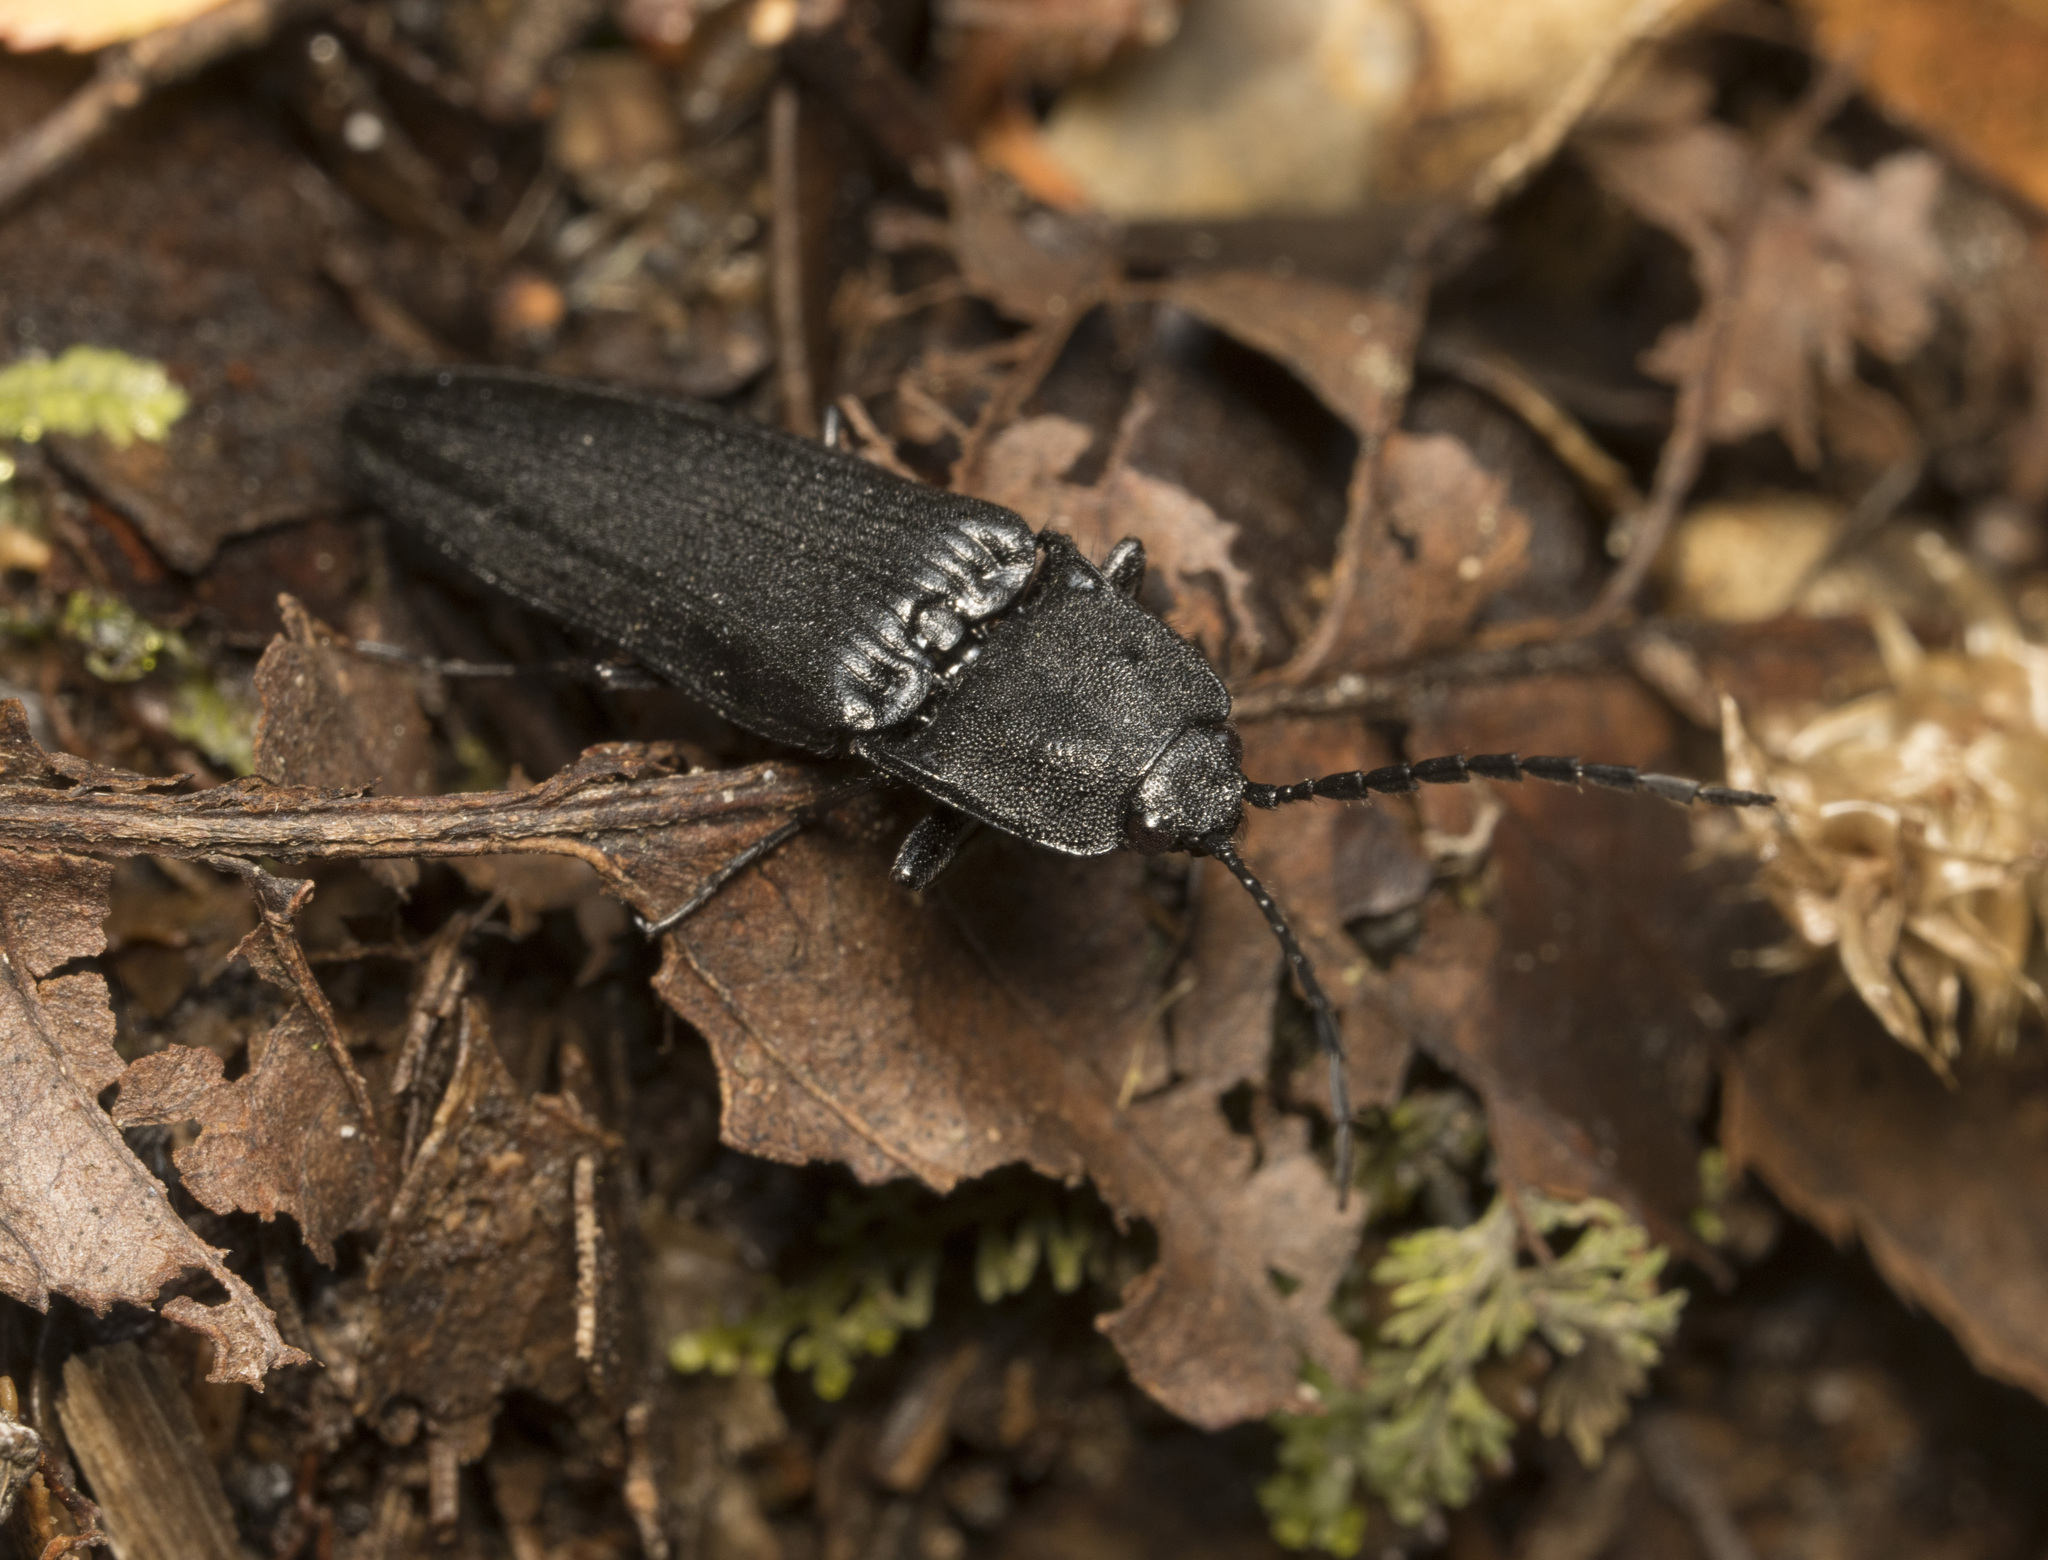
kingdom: Animalia
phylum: Arthropoda
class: Insecta
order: Coleoptera
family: Elateridae
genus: Tibionema
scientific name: Tibionema
